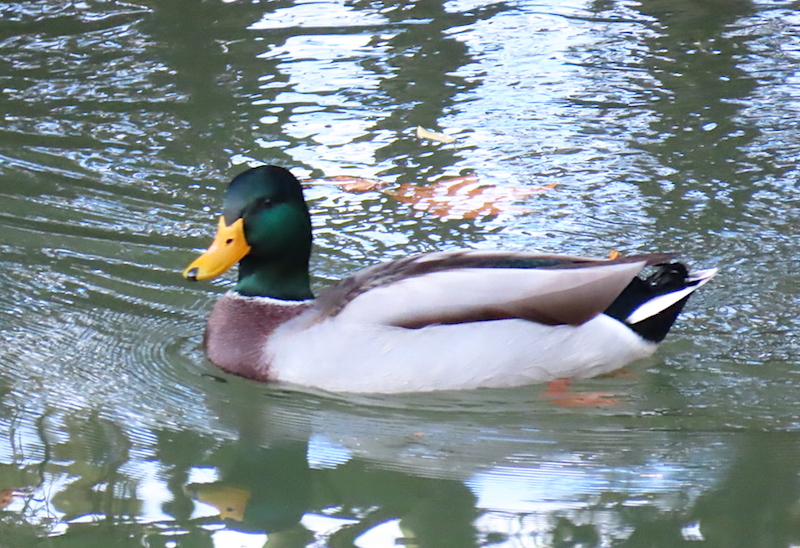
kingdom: Animalia
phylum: Chordata
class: Aves
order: Anseriformes
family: Anatidae
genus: Anas
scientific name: Anas platyrhynchos
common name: Mallard
